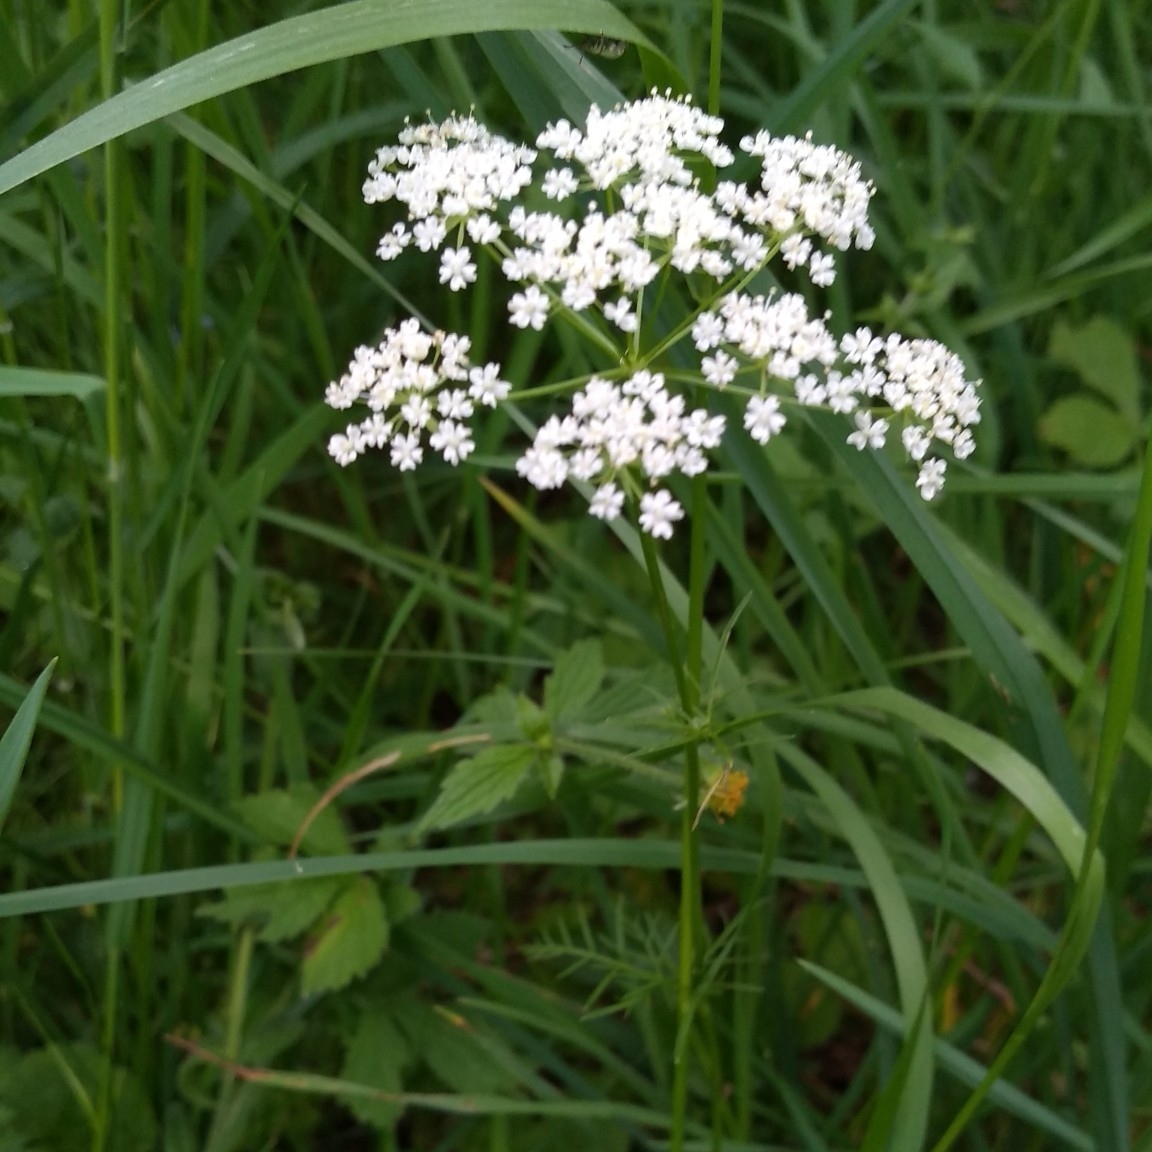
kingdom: Plantae
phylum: Tracheophyta
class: Magnoliopsida
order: Apiales
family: Apiaceae
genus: Conopodium
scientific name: Conopodium majus
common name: Pignut
